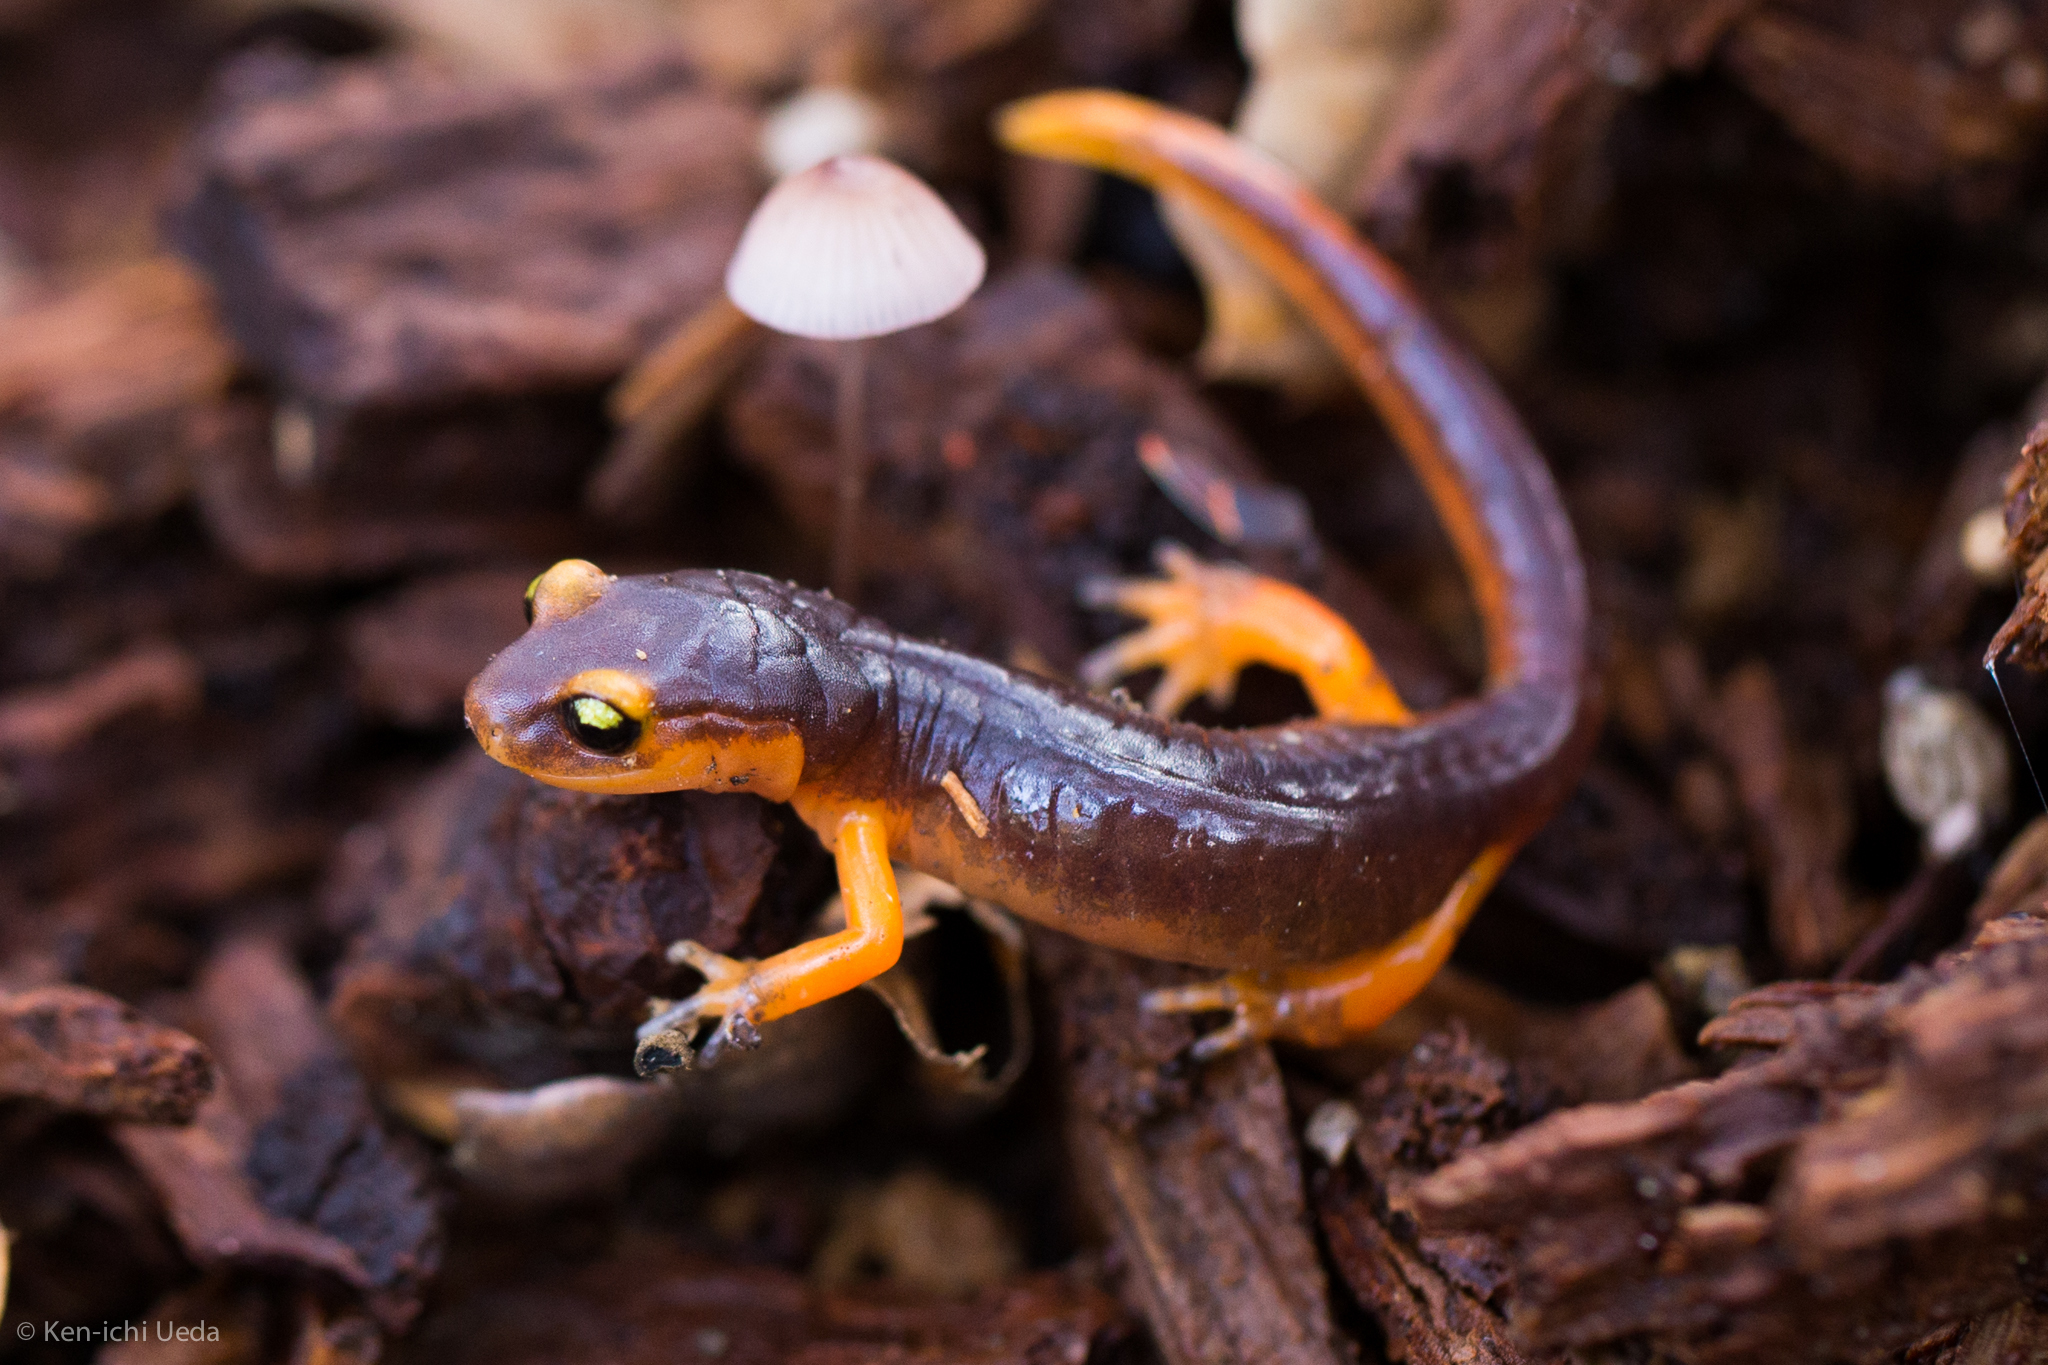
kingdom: Animalia
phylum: Chordata
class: Amphibia
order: Caudata
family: Plethodontidae
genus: Ensatina
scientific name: Ensatina eschscholtzii
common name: Ensatina
